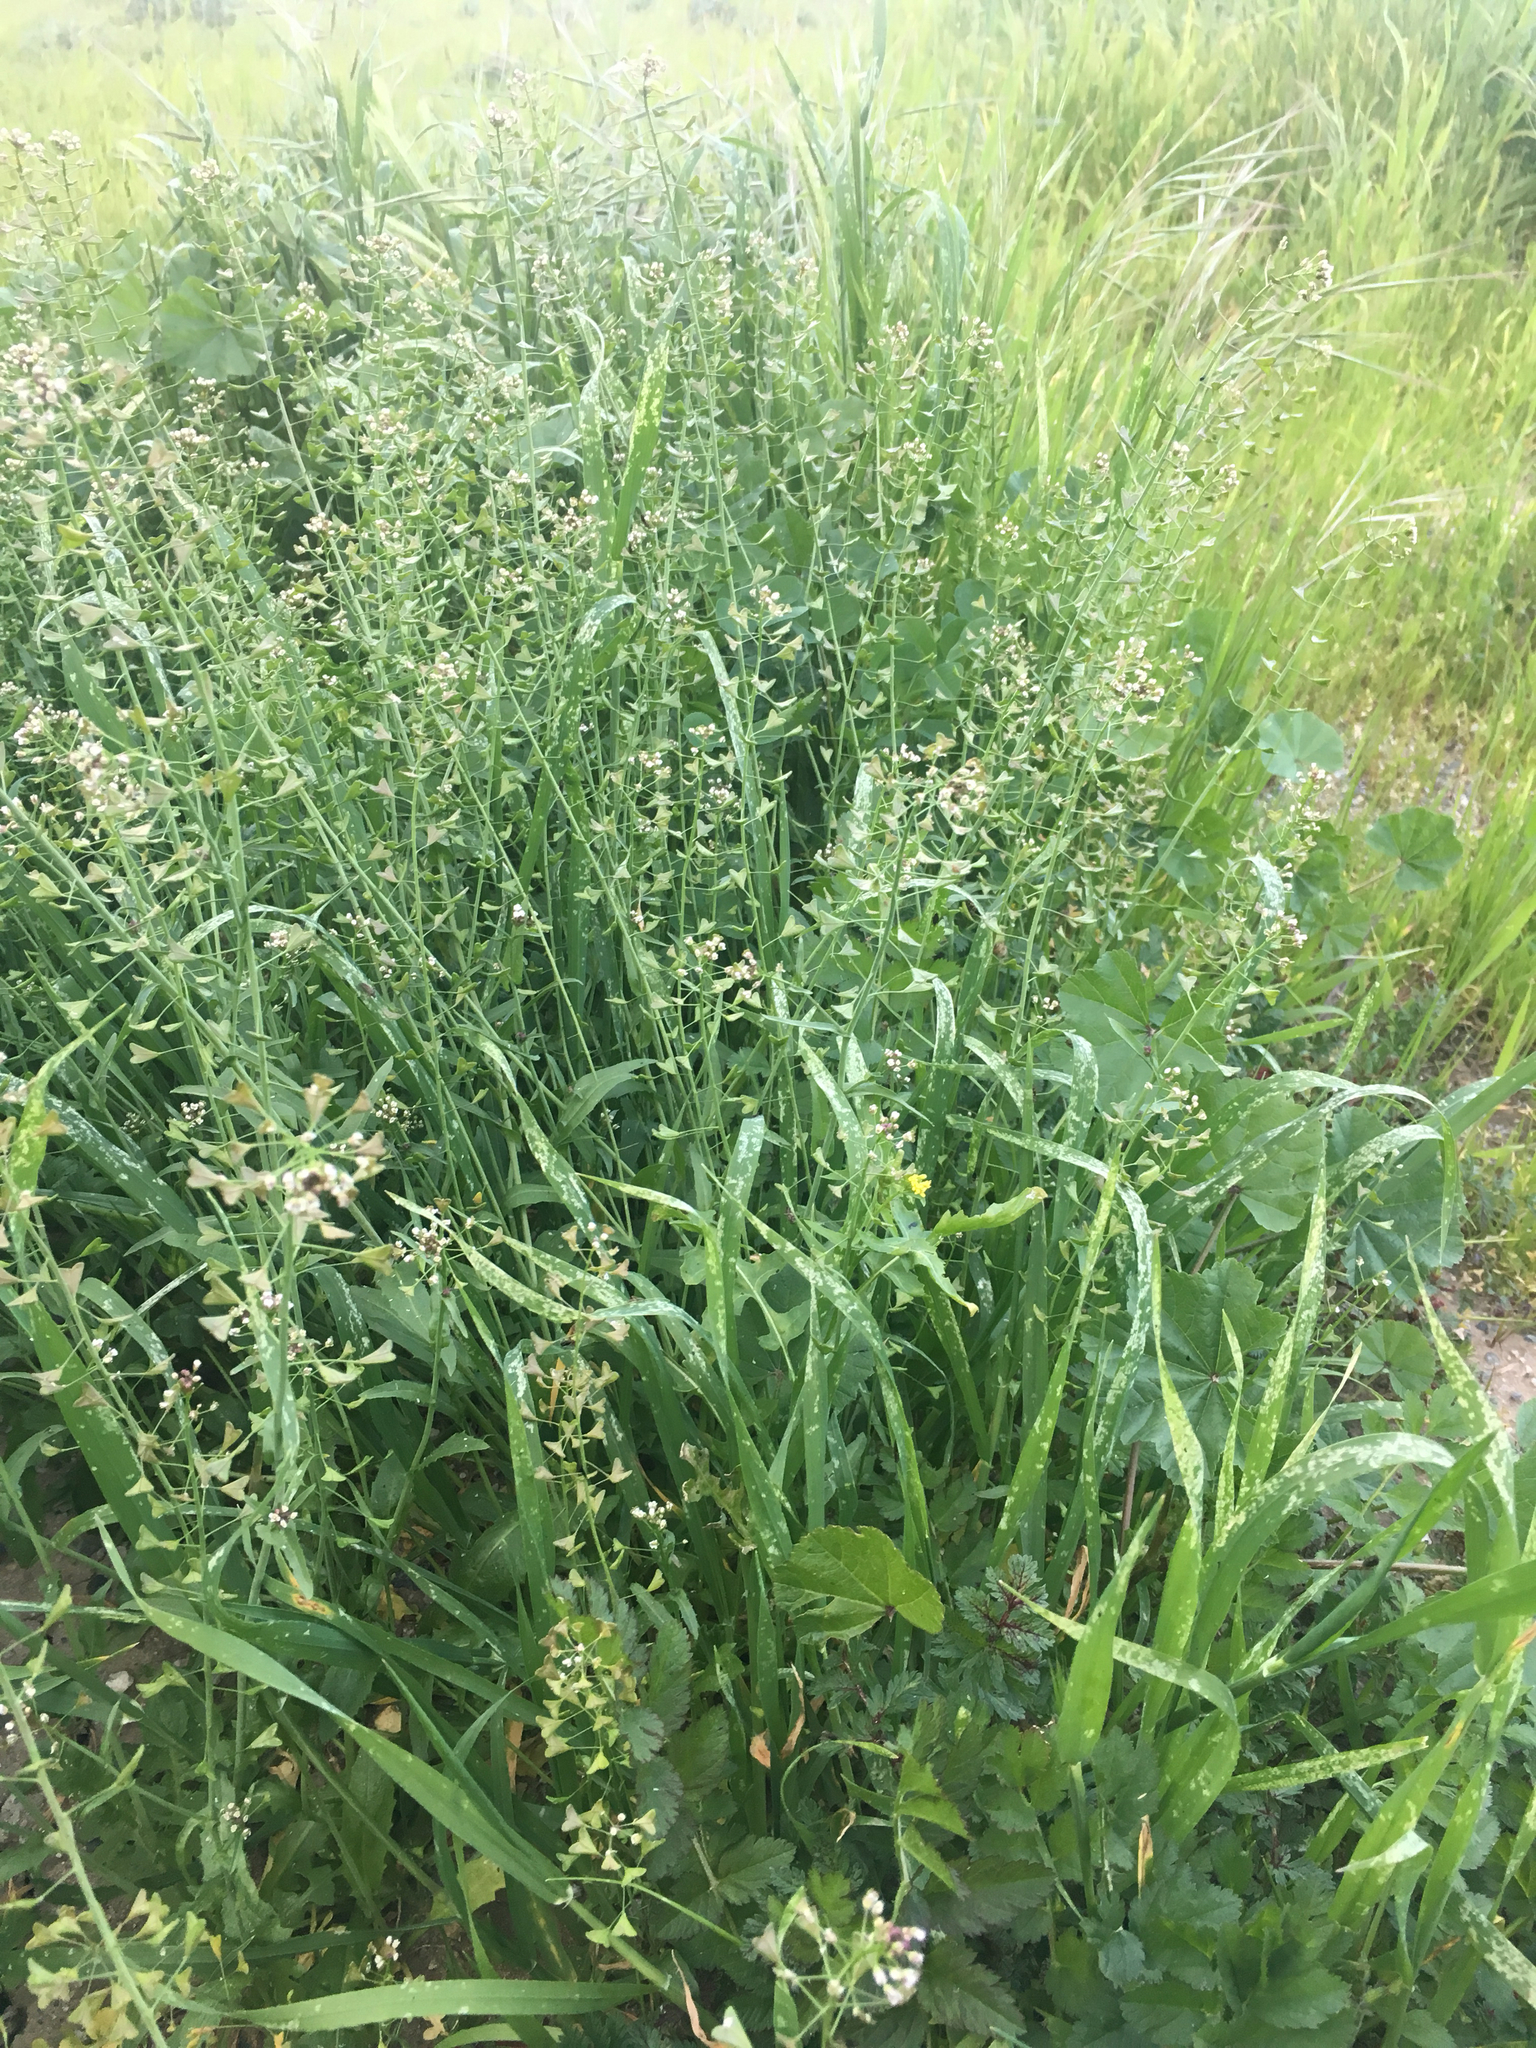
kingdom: Plantae
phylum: Tracheophyta
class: Magnoliopsida
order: Brassicales
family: Brassicaceae
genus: Capsella
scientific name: Capsella bursa-pastoris
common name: Shepherd's purse
